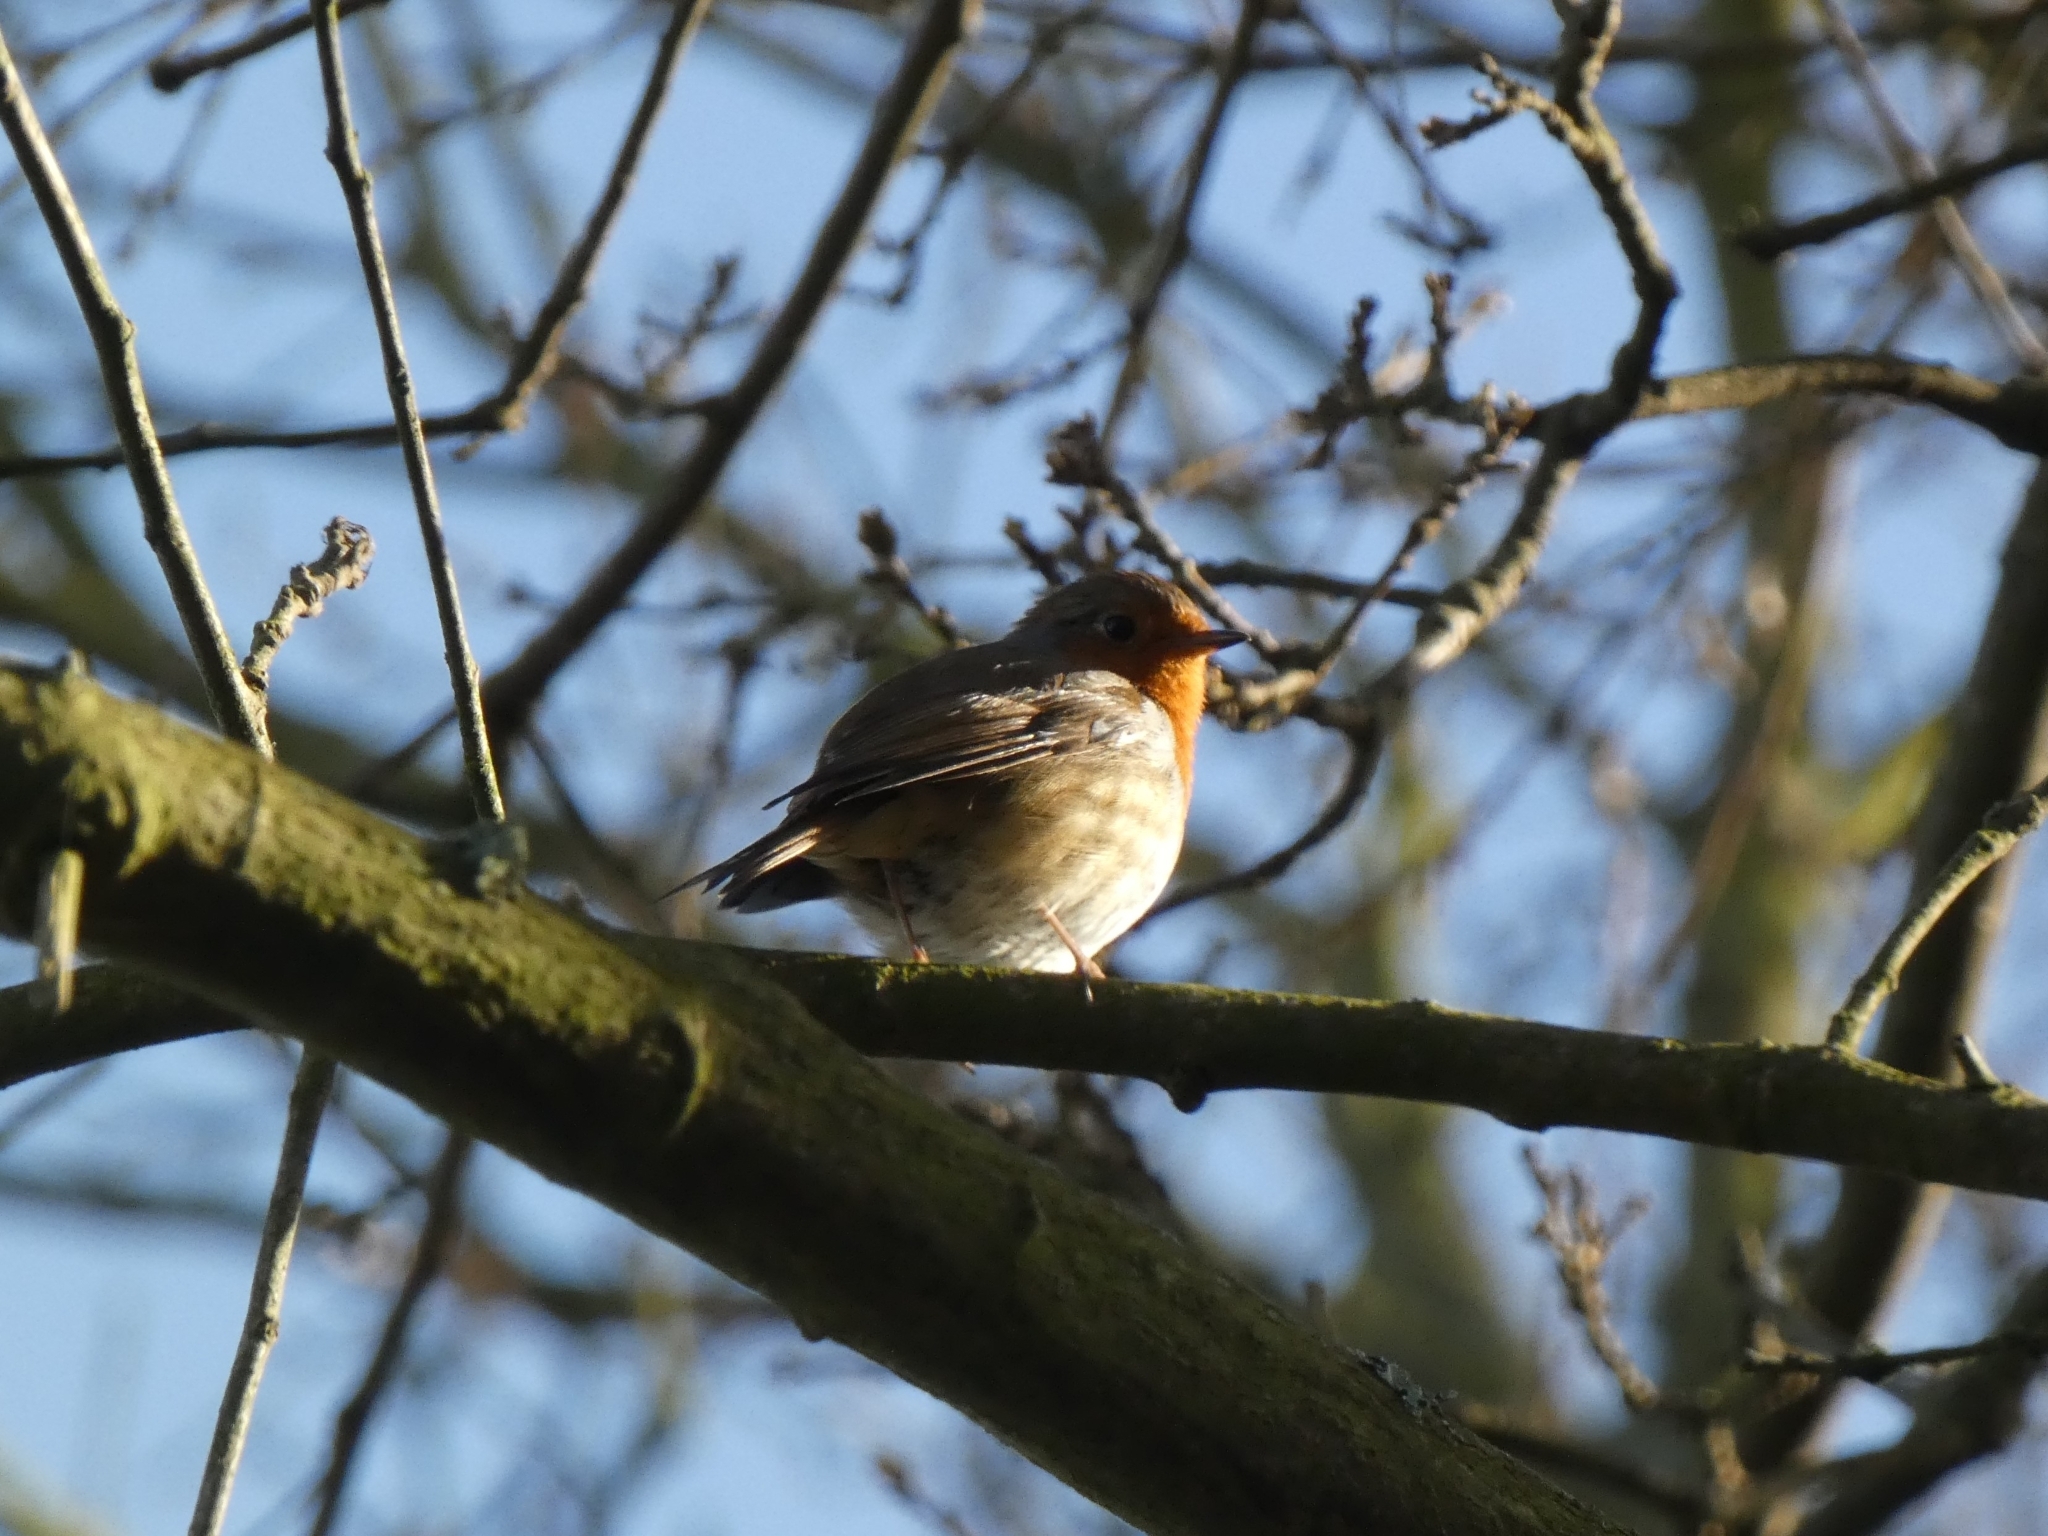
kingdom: Animalia
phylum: Chordata
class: Aves
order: Passeriformes
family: Muscicapidae
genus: Erithacus
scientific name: Erithacus rubecula
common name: European robin
